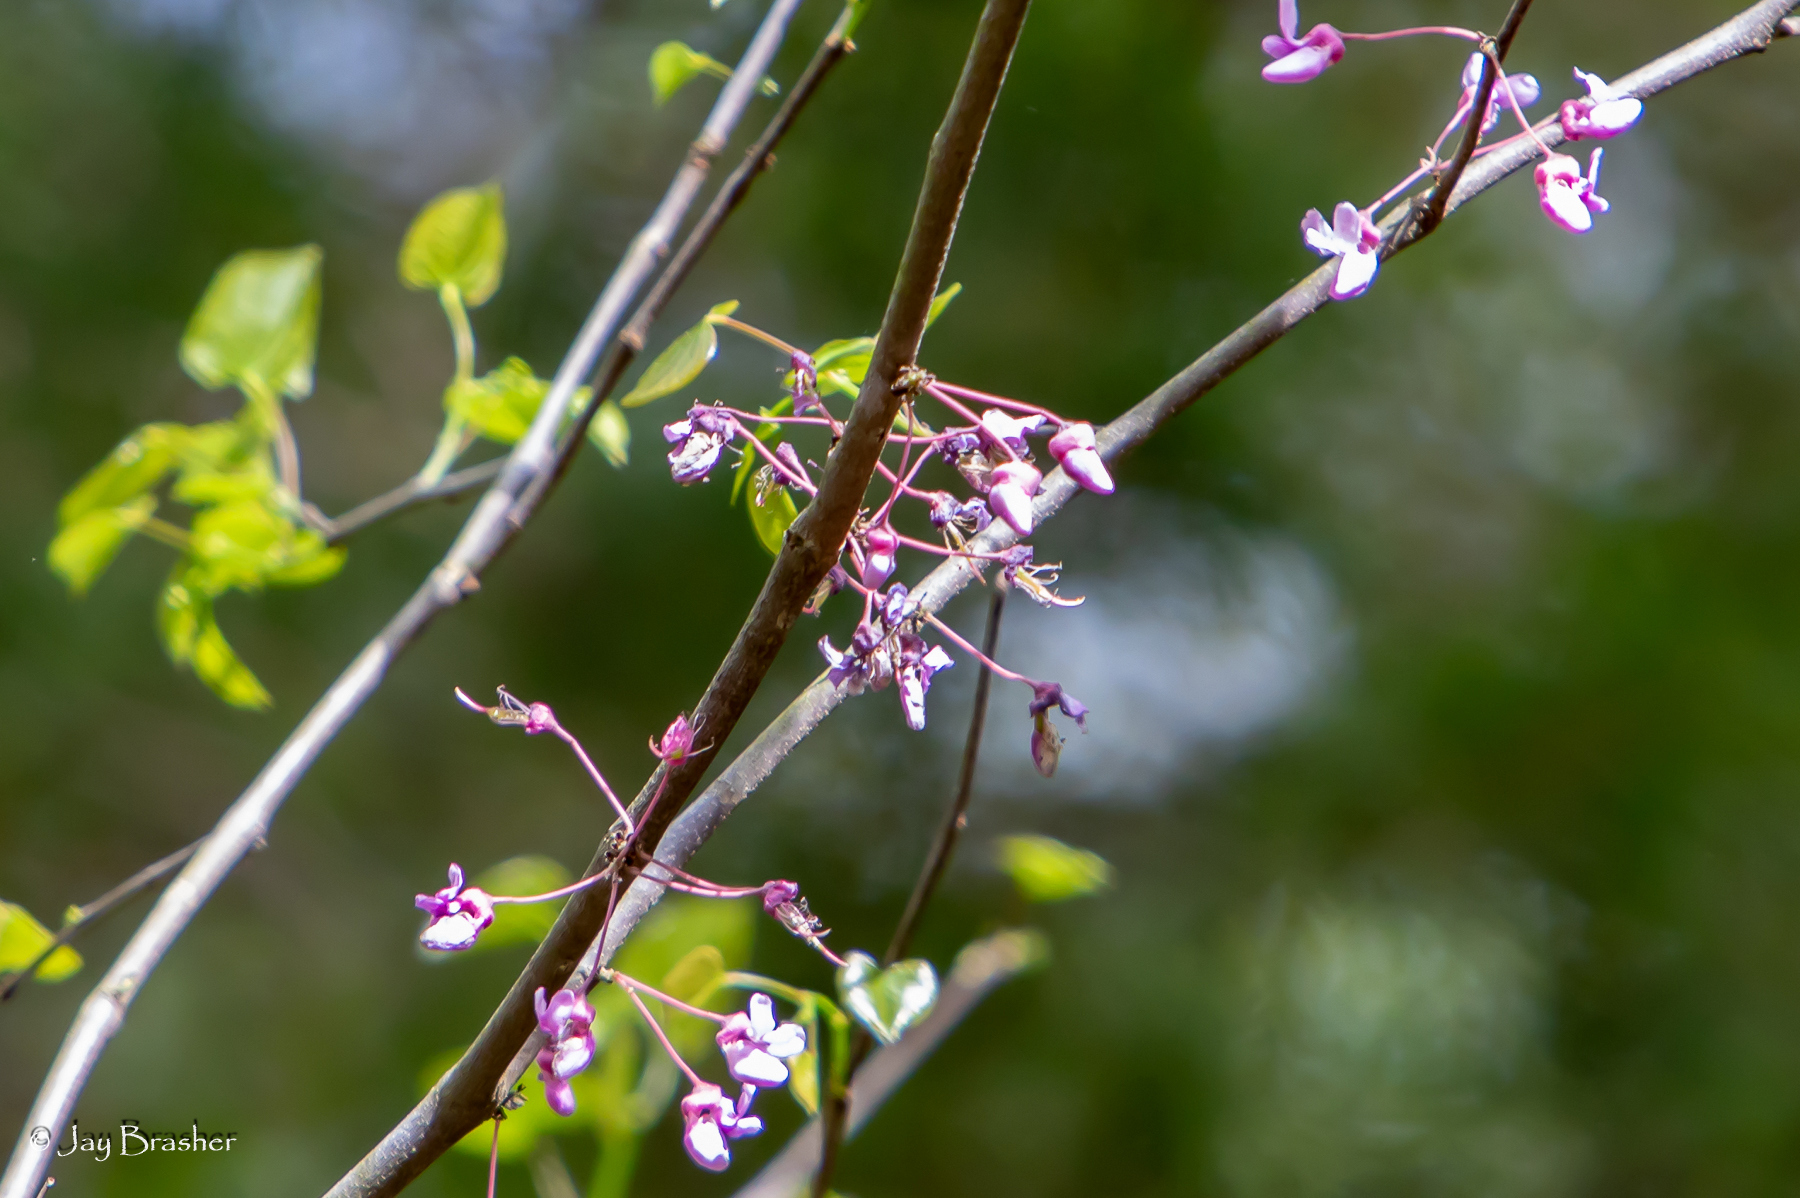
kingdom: Plantae
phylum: Tracheophyta
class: Magnoliopsida
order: Fabales
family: Fabaceae
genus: Cercis
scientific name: Cercis canadensis
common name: Eastern redbud
